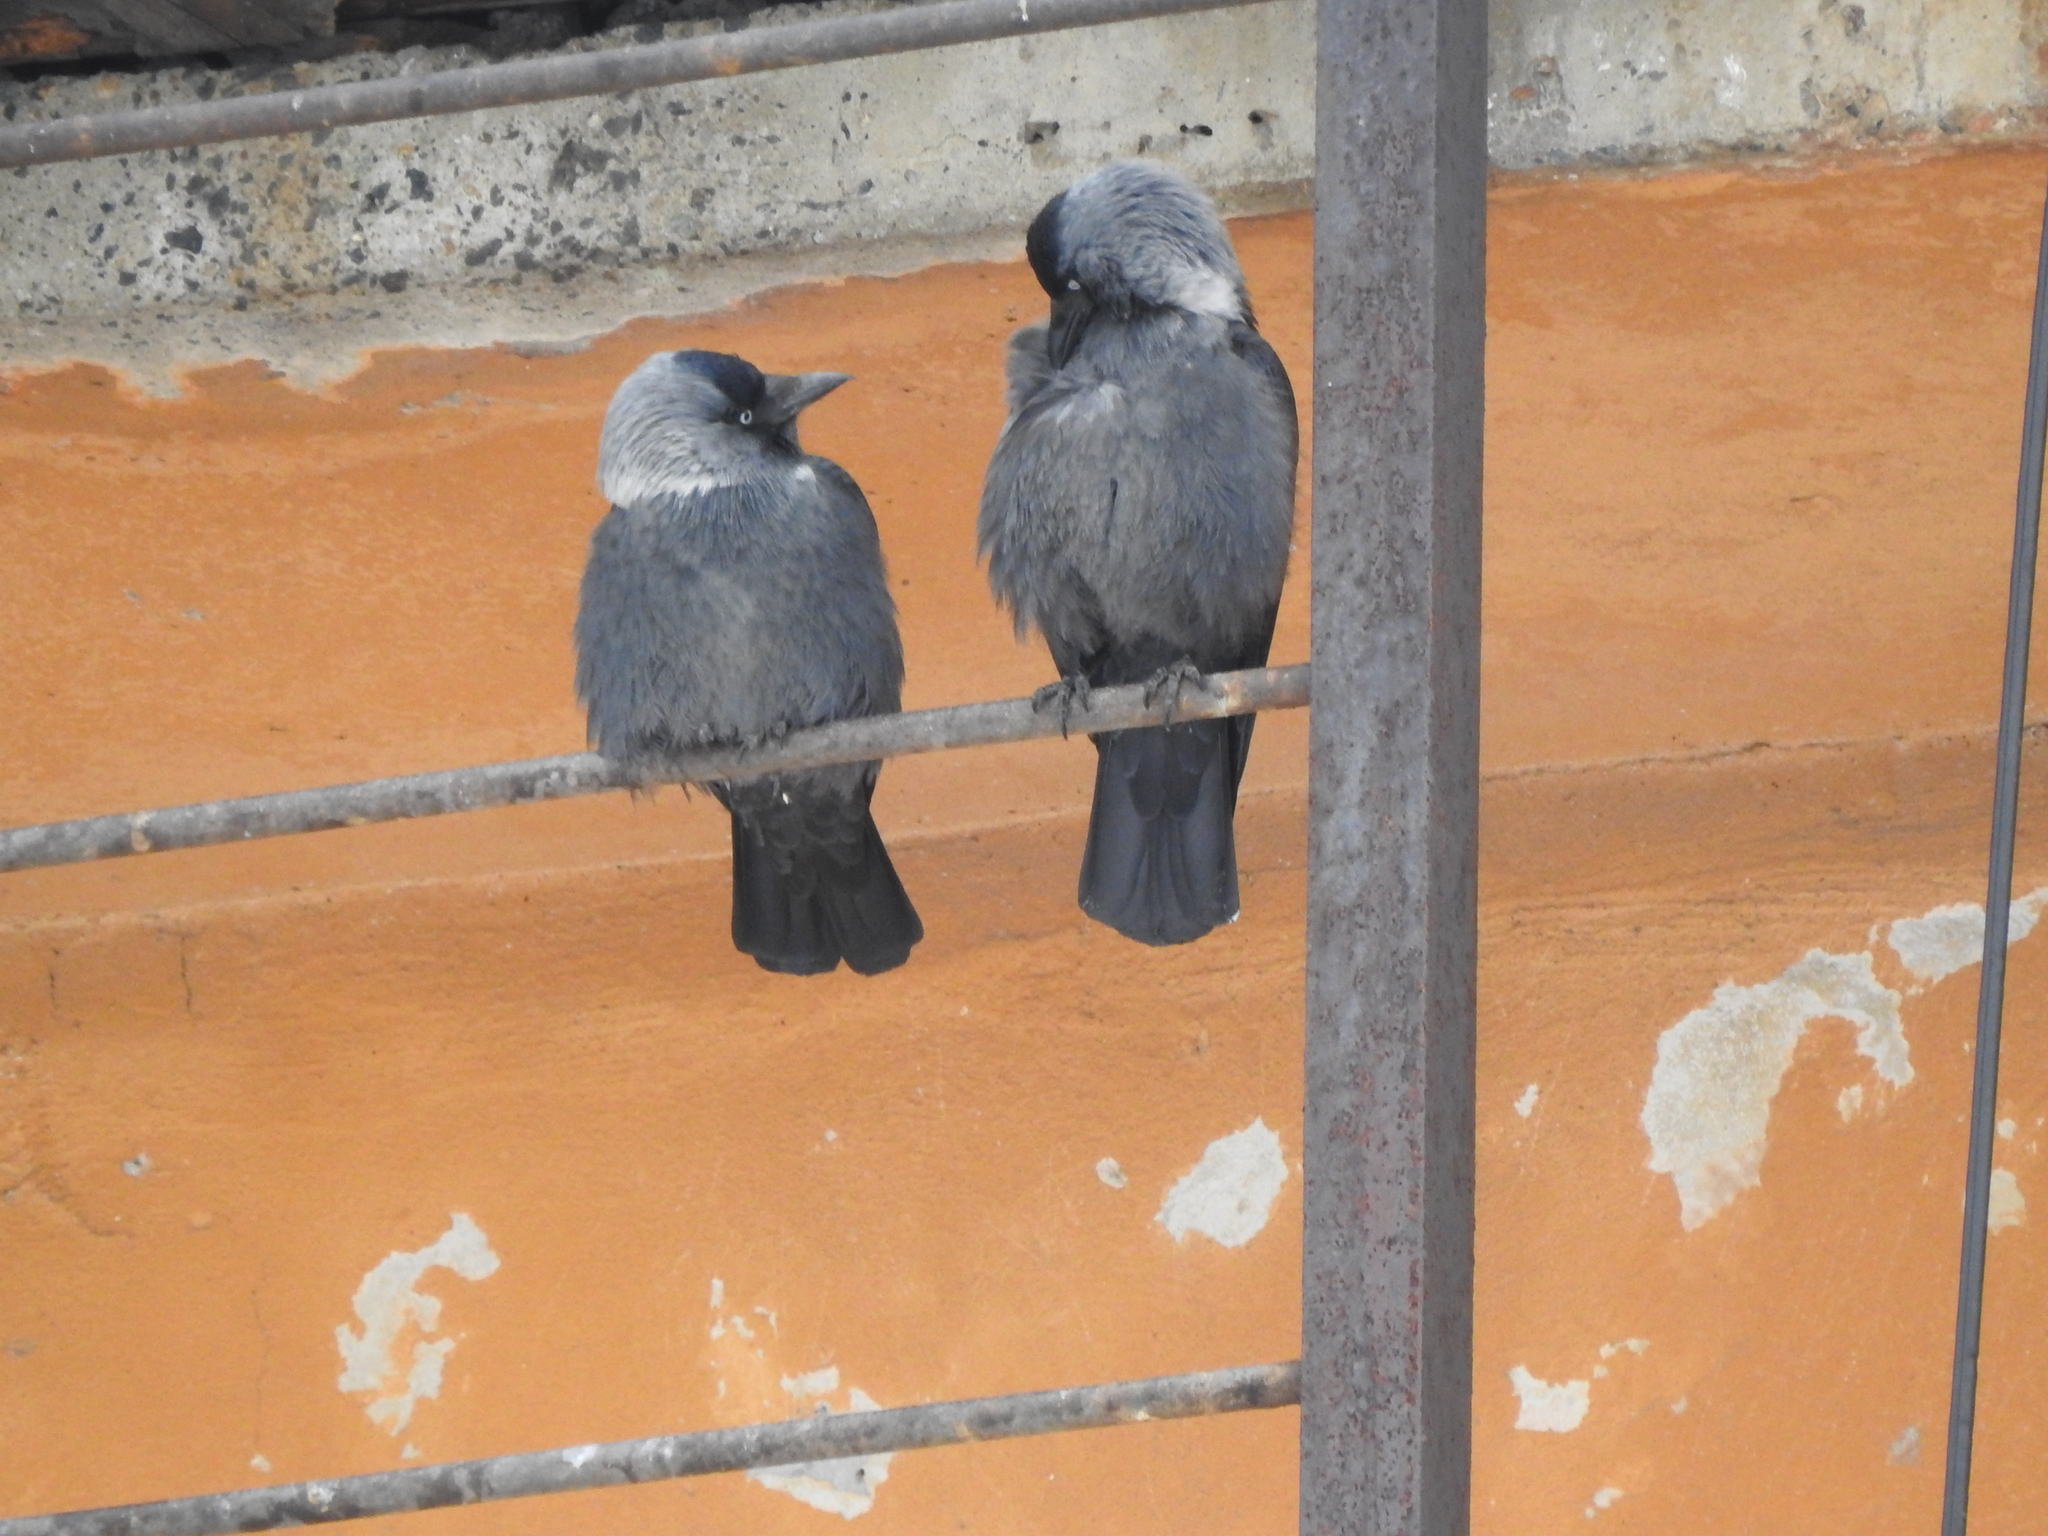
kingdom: Animalia
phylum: Chordata
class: Aves
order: Passeriformes
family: Corvidae
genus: Coloeus
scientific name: Coloeus monedula
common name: Western jackdaw
